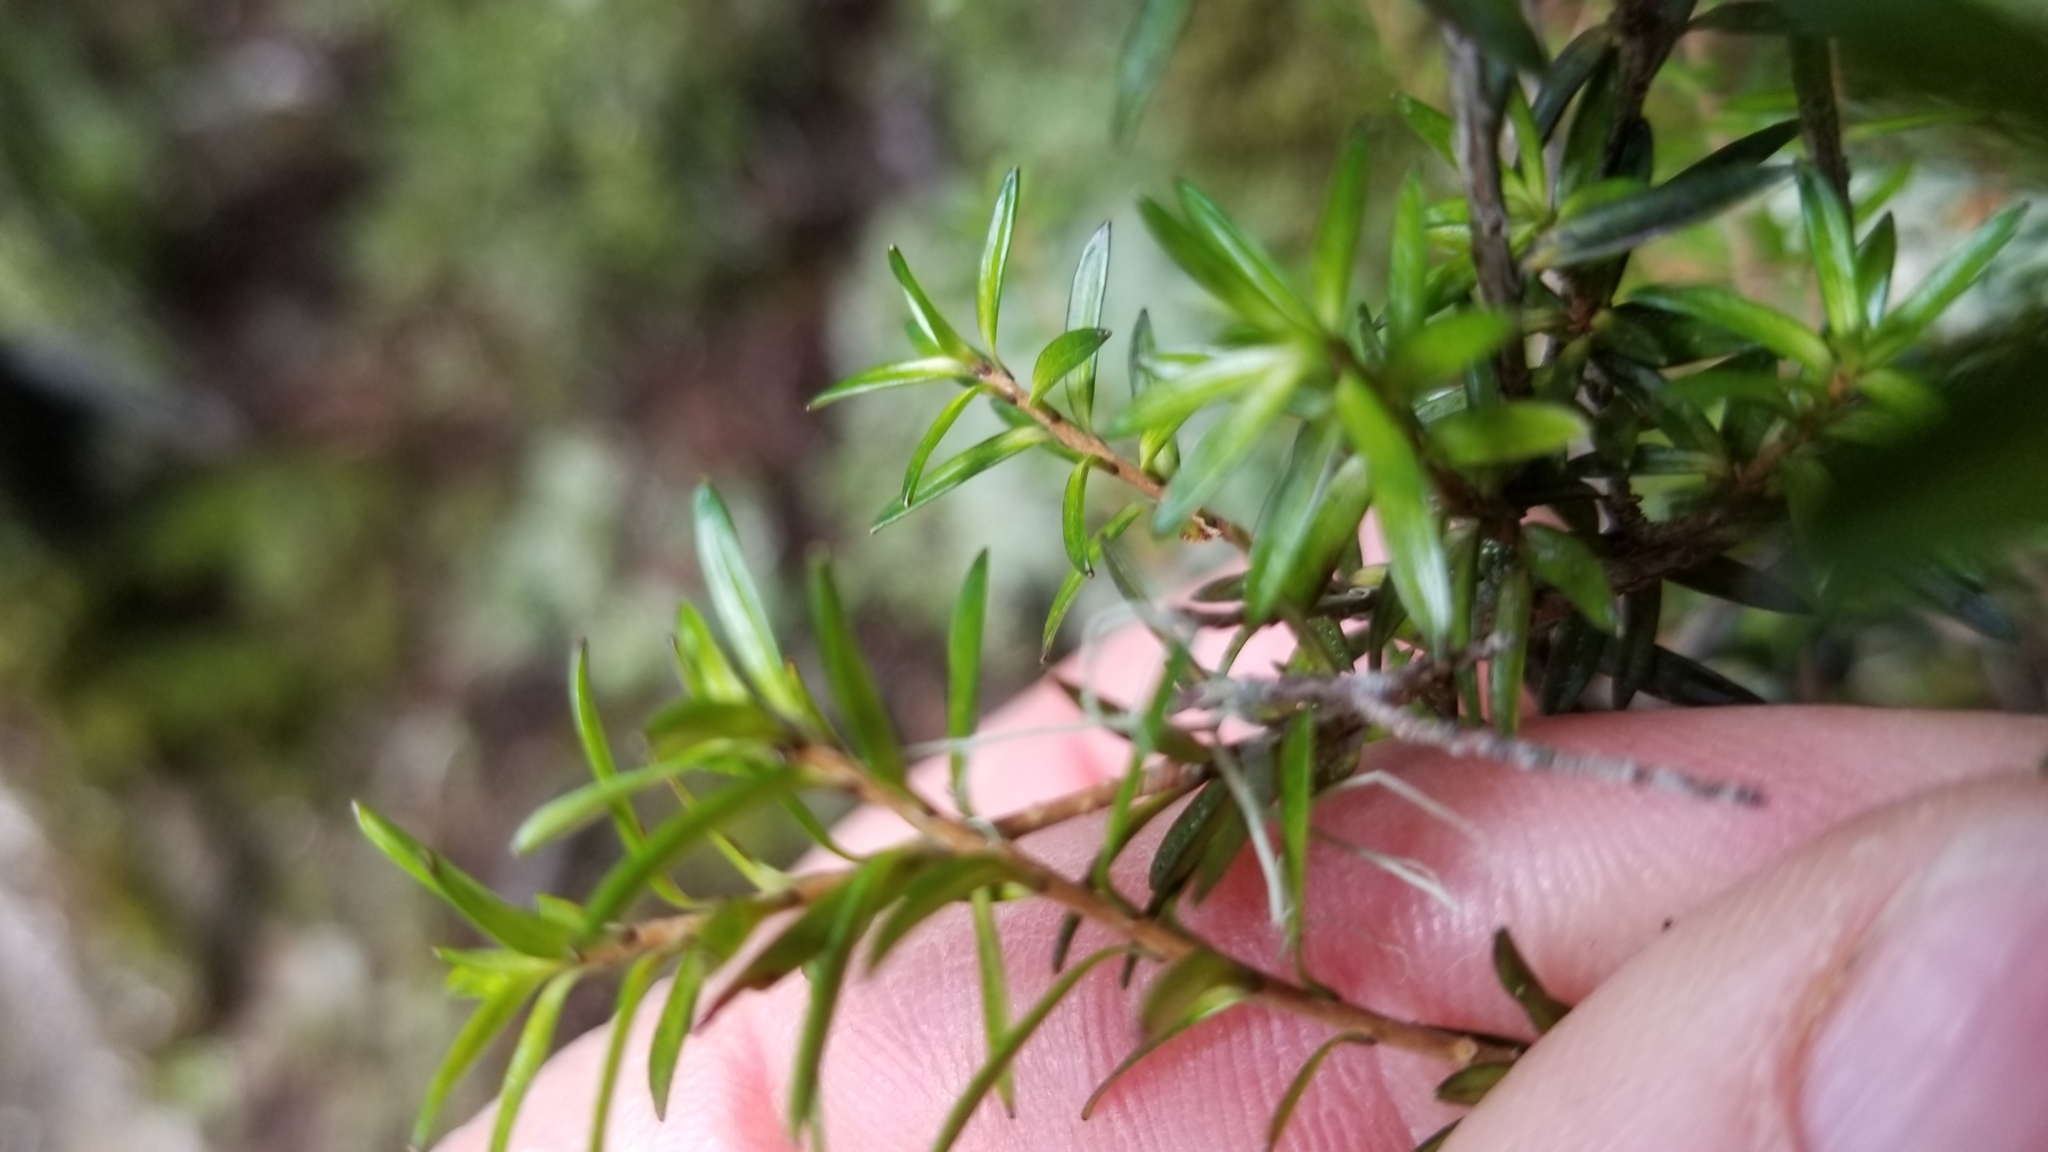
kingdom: Plantae
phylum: Tracheophyta
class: Magnoliopsida
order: Ericales
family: Ericaceae
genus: Archeria
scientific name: Archeria traversii
